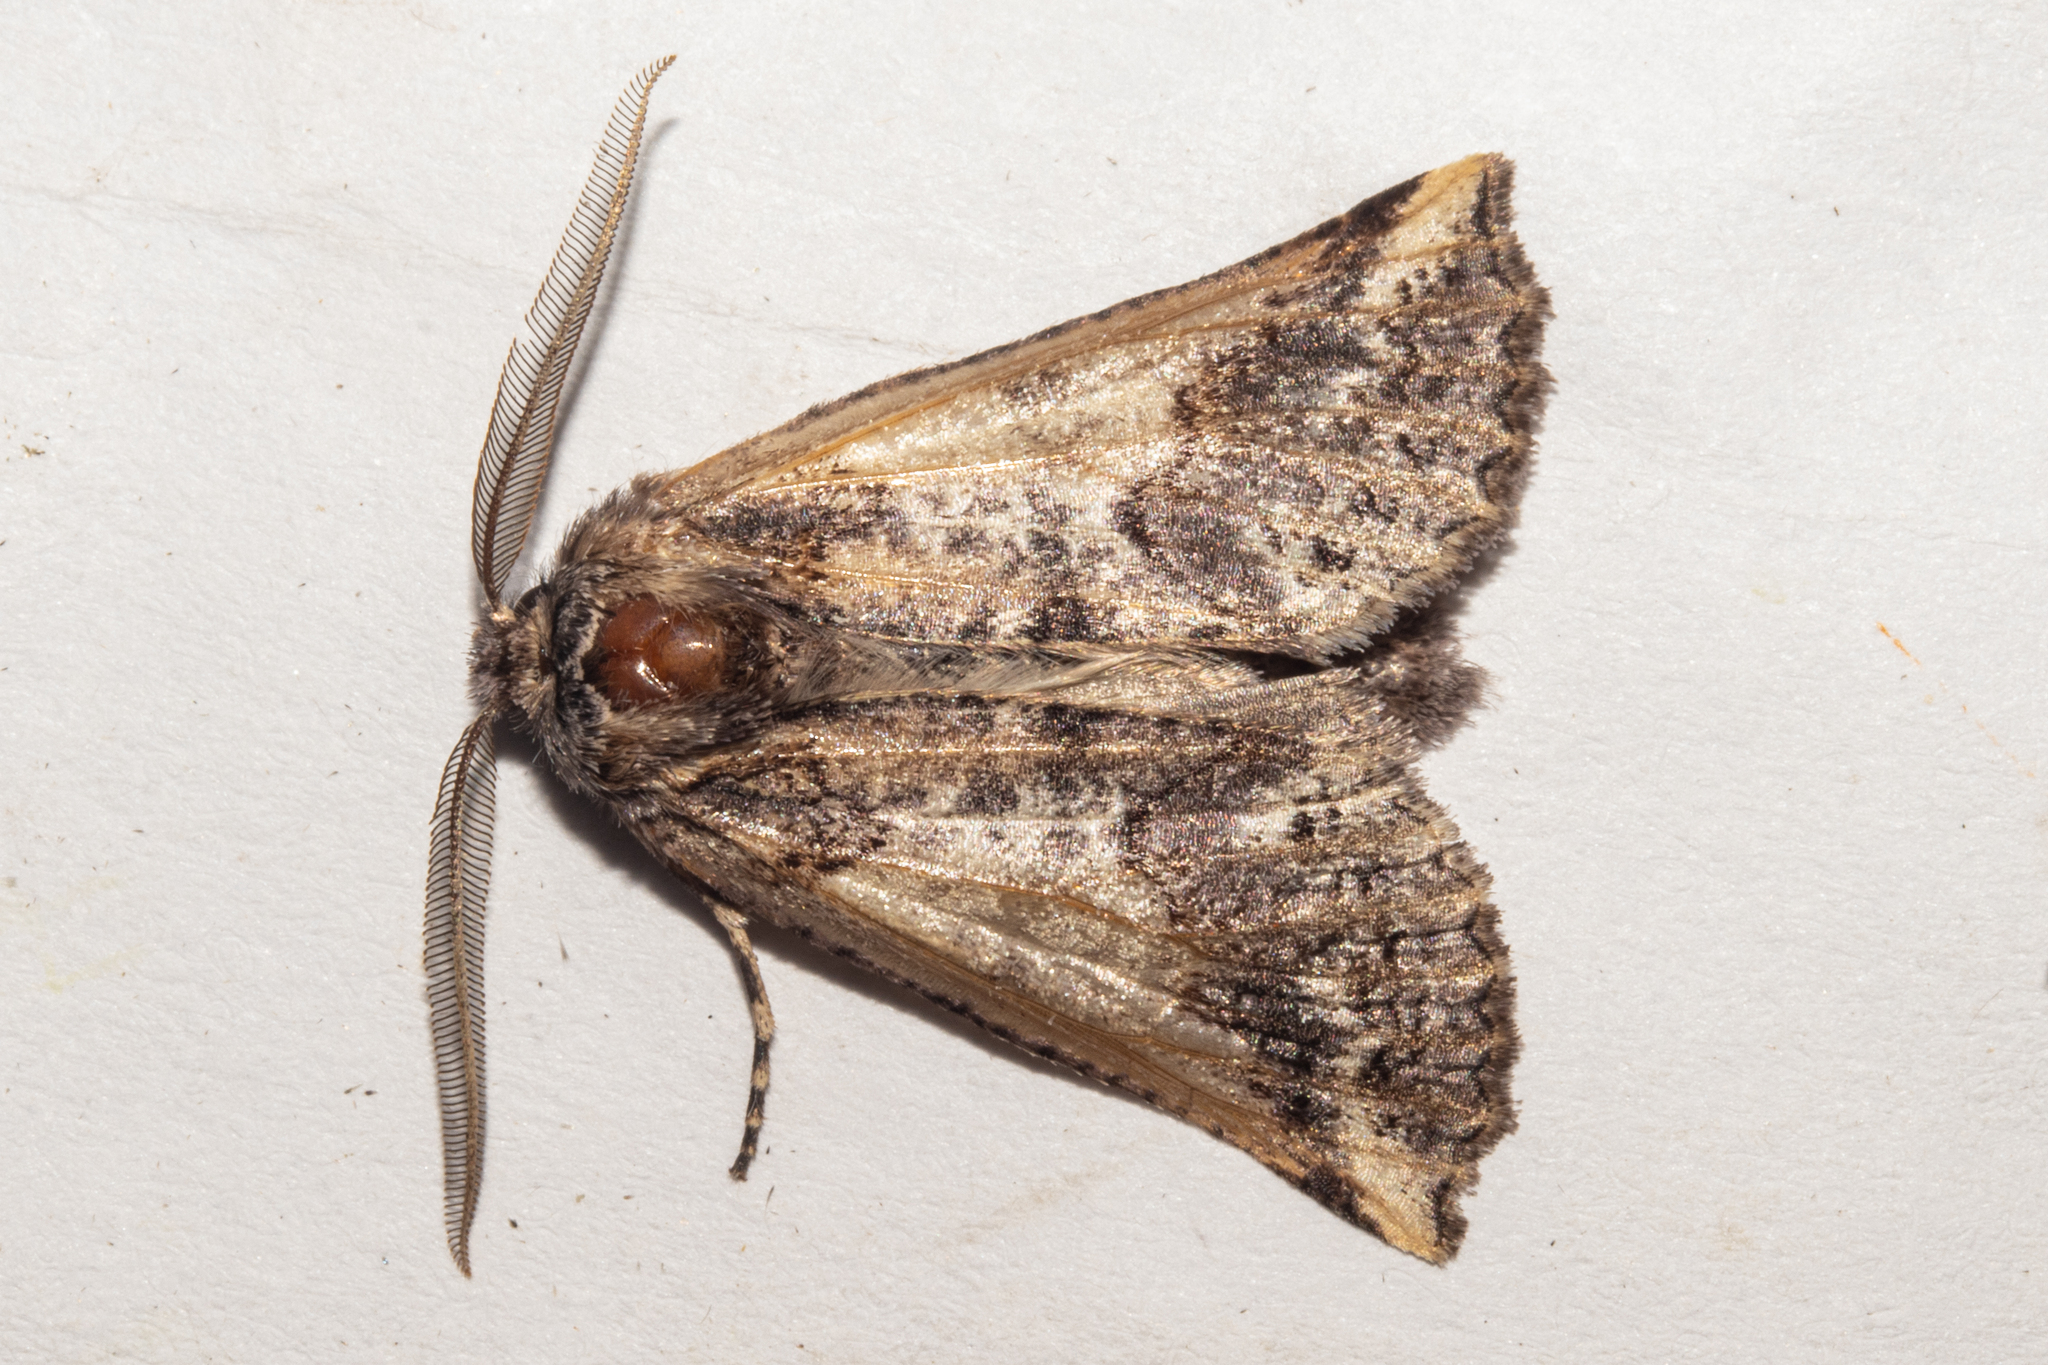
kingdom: Animalia
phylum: Arthropoda
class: Insecta
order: Lepidoptera
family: Geometridae
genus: Declana
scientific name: Declana
